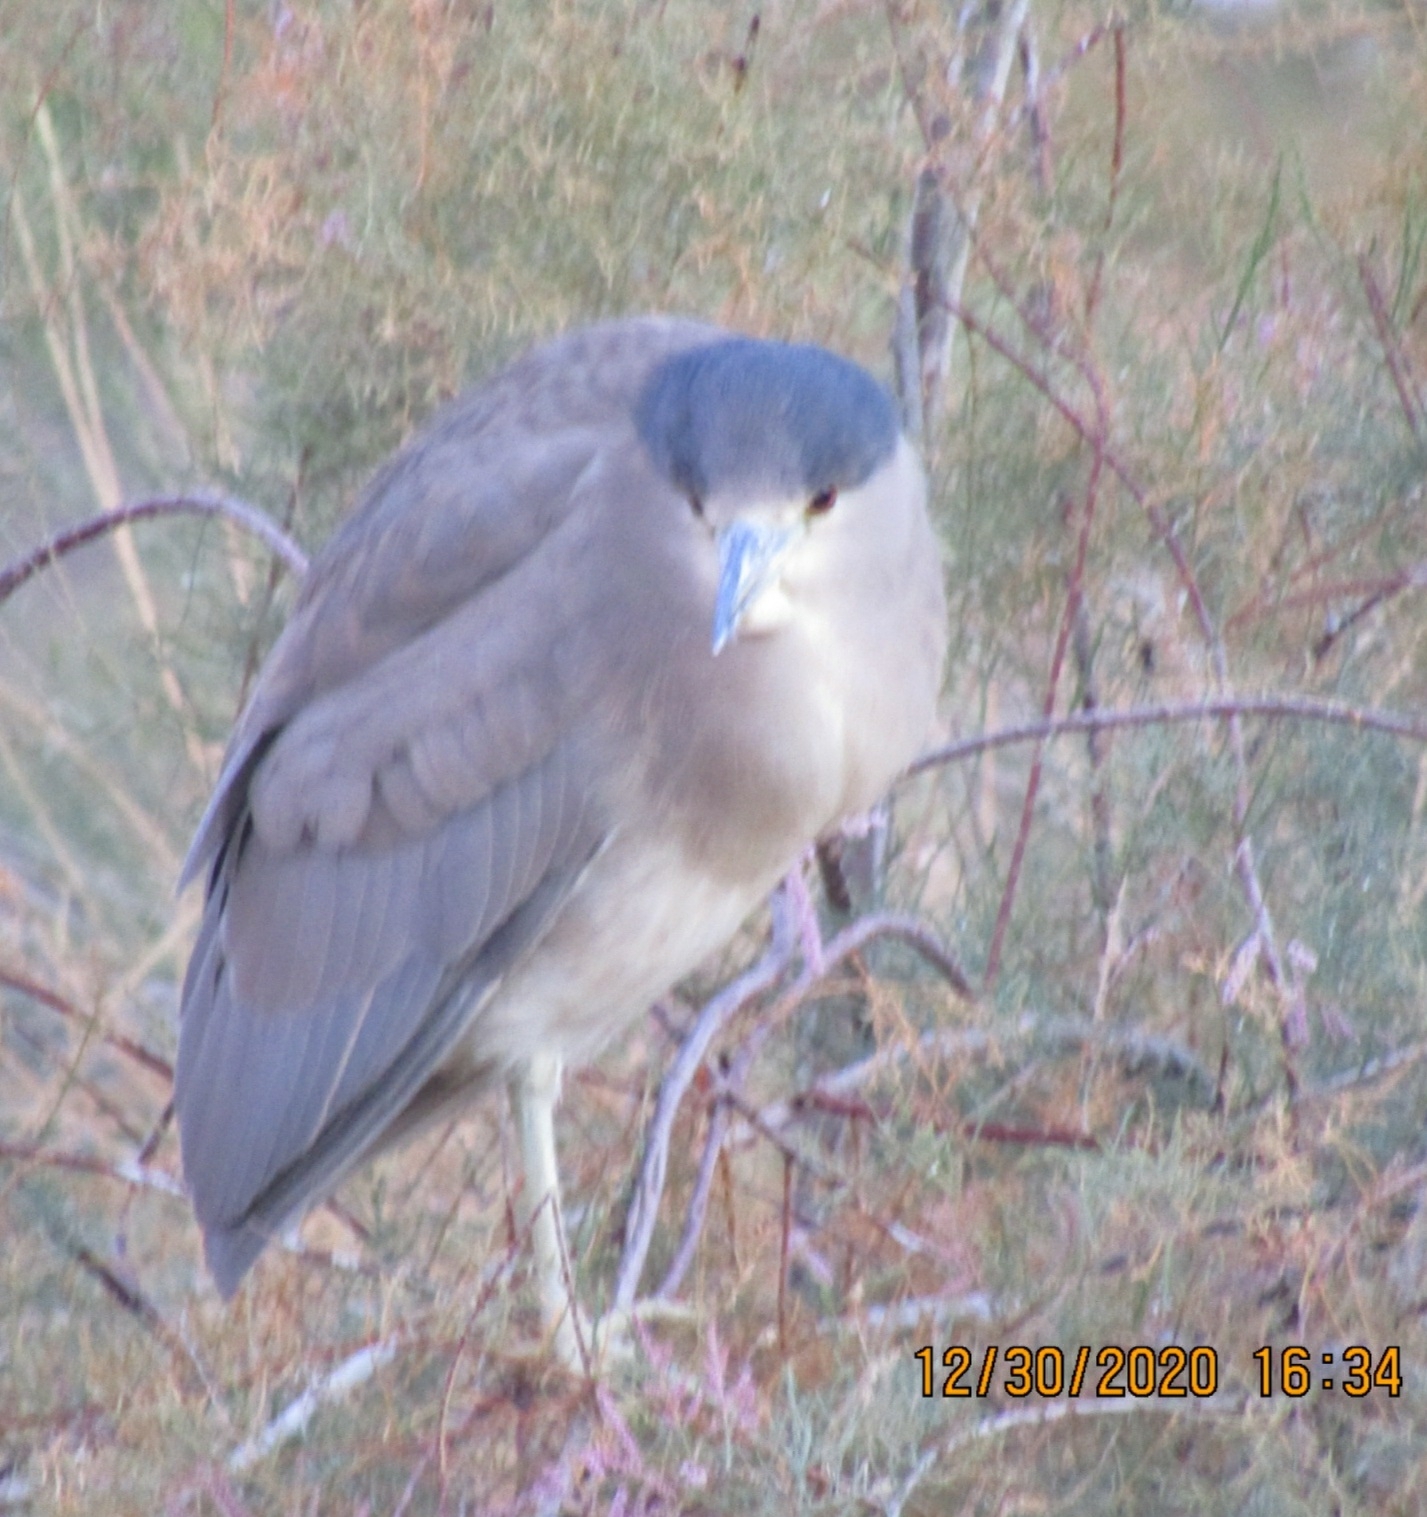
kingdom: Animalia
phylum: Chordata
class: Aves
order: Pelecaniformes
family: Ardeidae
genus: Nycticorax
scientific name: Nycticorax nycticorax
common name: Black-crowned night heron
